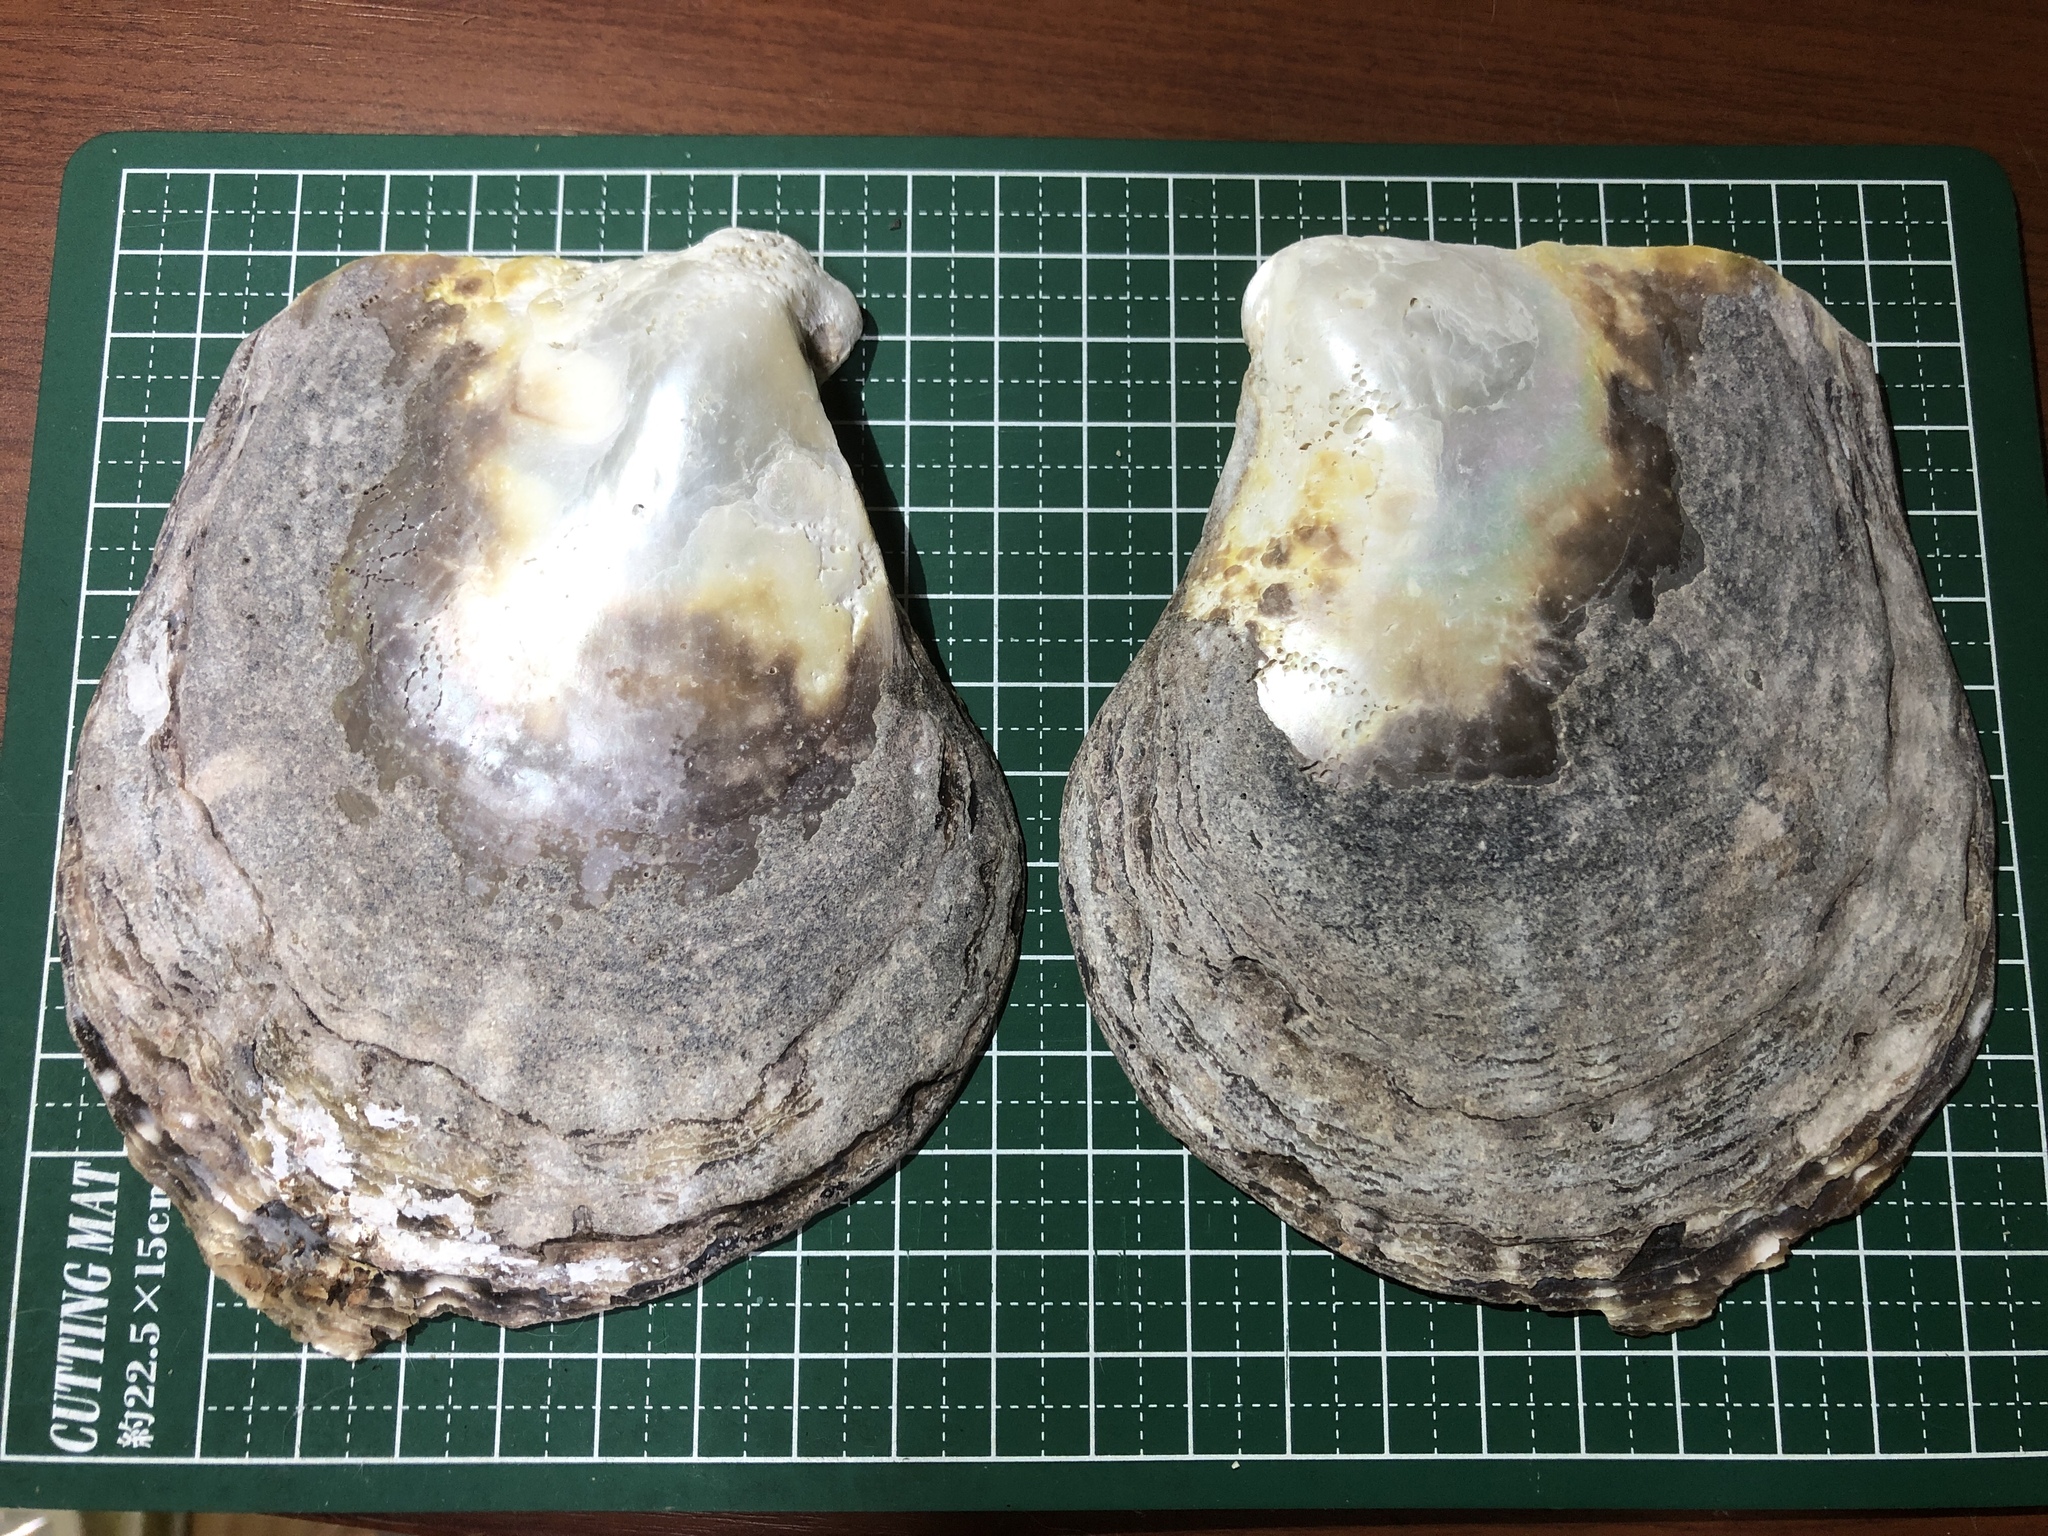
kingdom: Animalia
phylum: Mollusca
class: Bivalvia
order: Ostreida
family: Margaritidae
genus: Pinctada
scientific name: Pinctada margaritifera
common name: Pacific pearl-oyster
